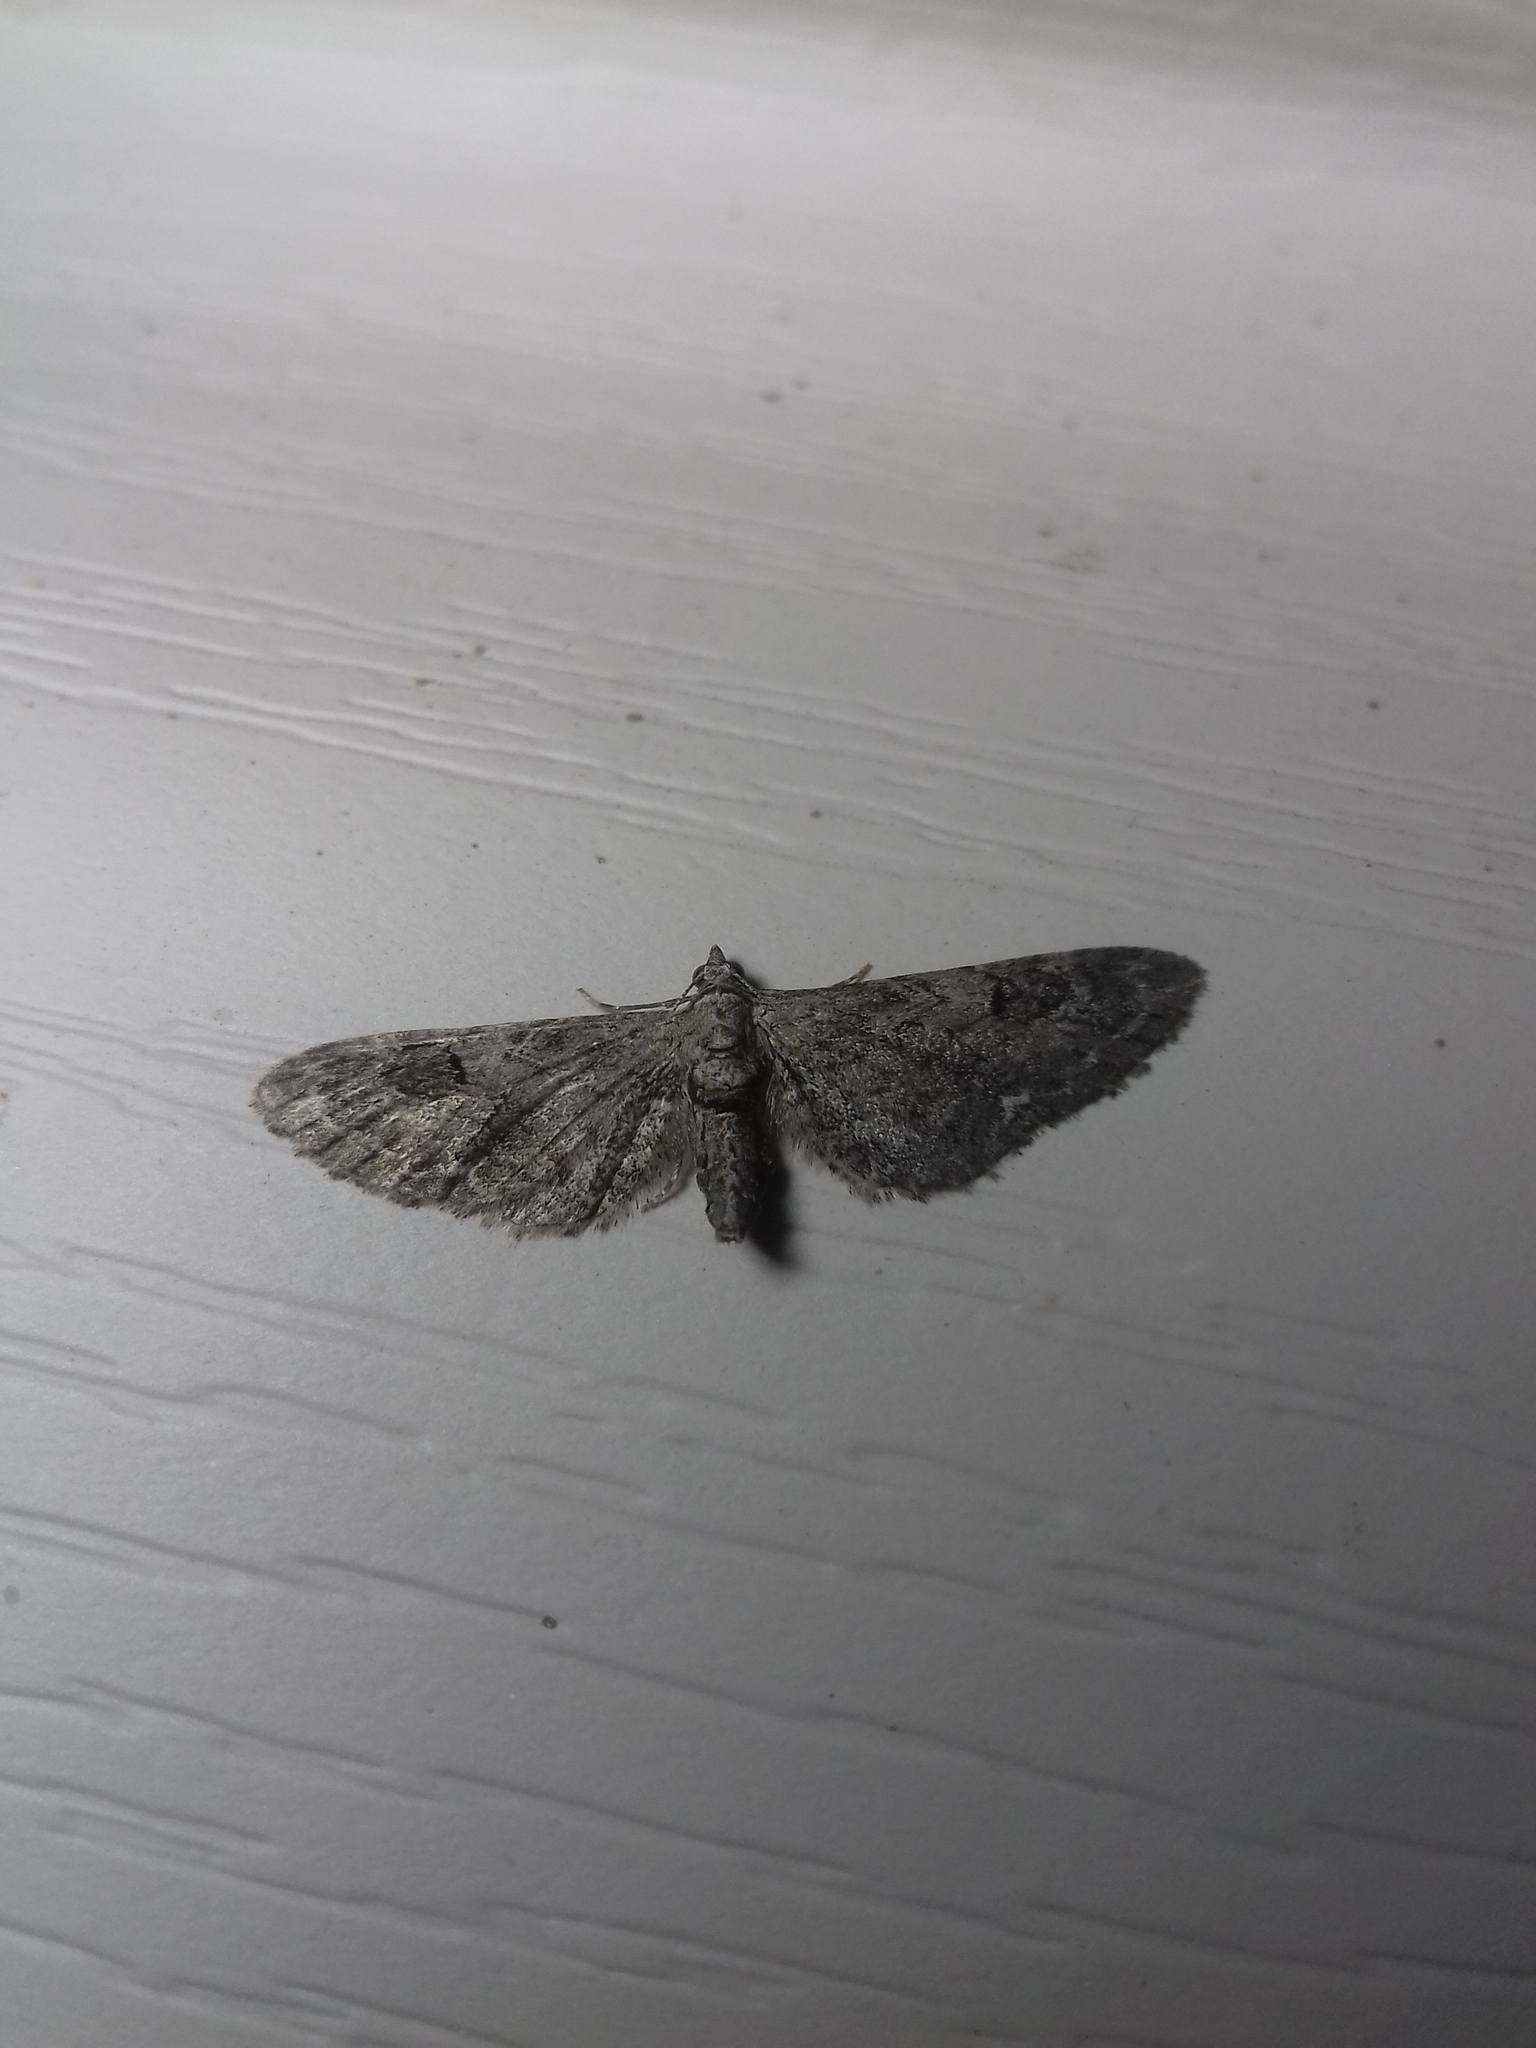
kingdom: Animalia
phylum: Arthropoda
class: Insecta
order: Lepidoptera
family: Geometridae
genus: Eupithecia
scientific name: Eupithecia innotata
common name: Angle-barred pug
